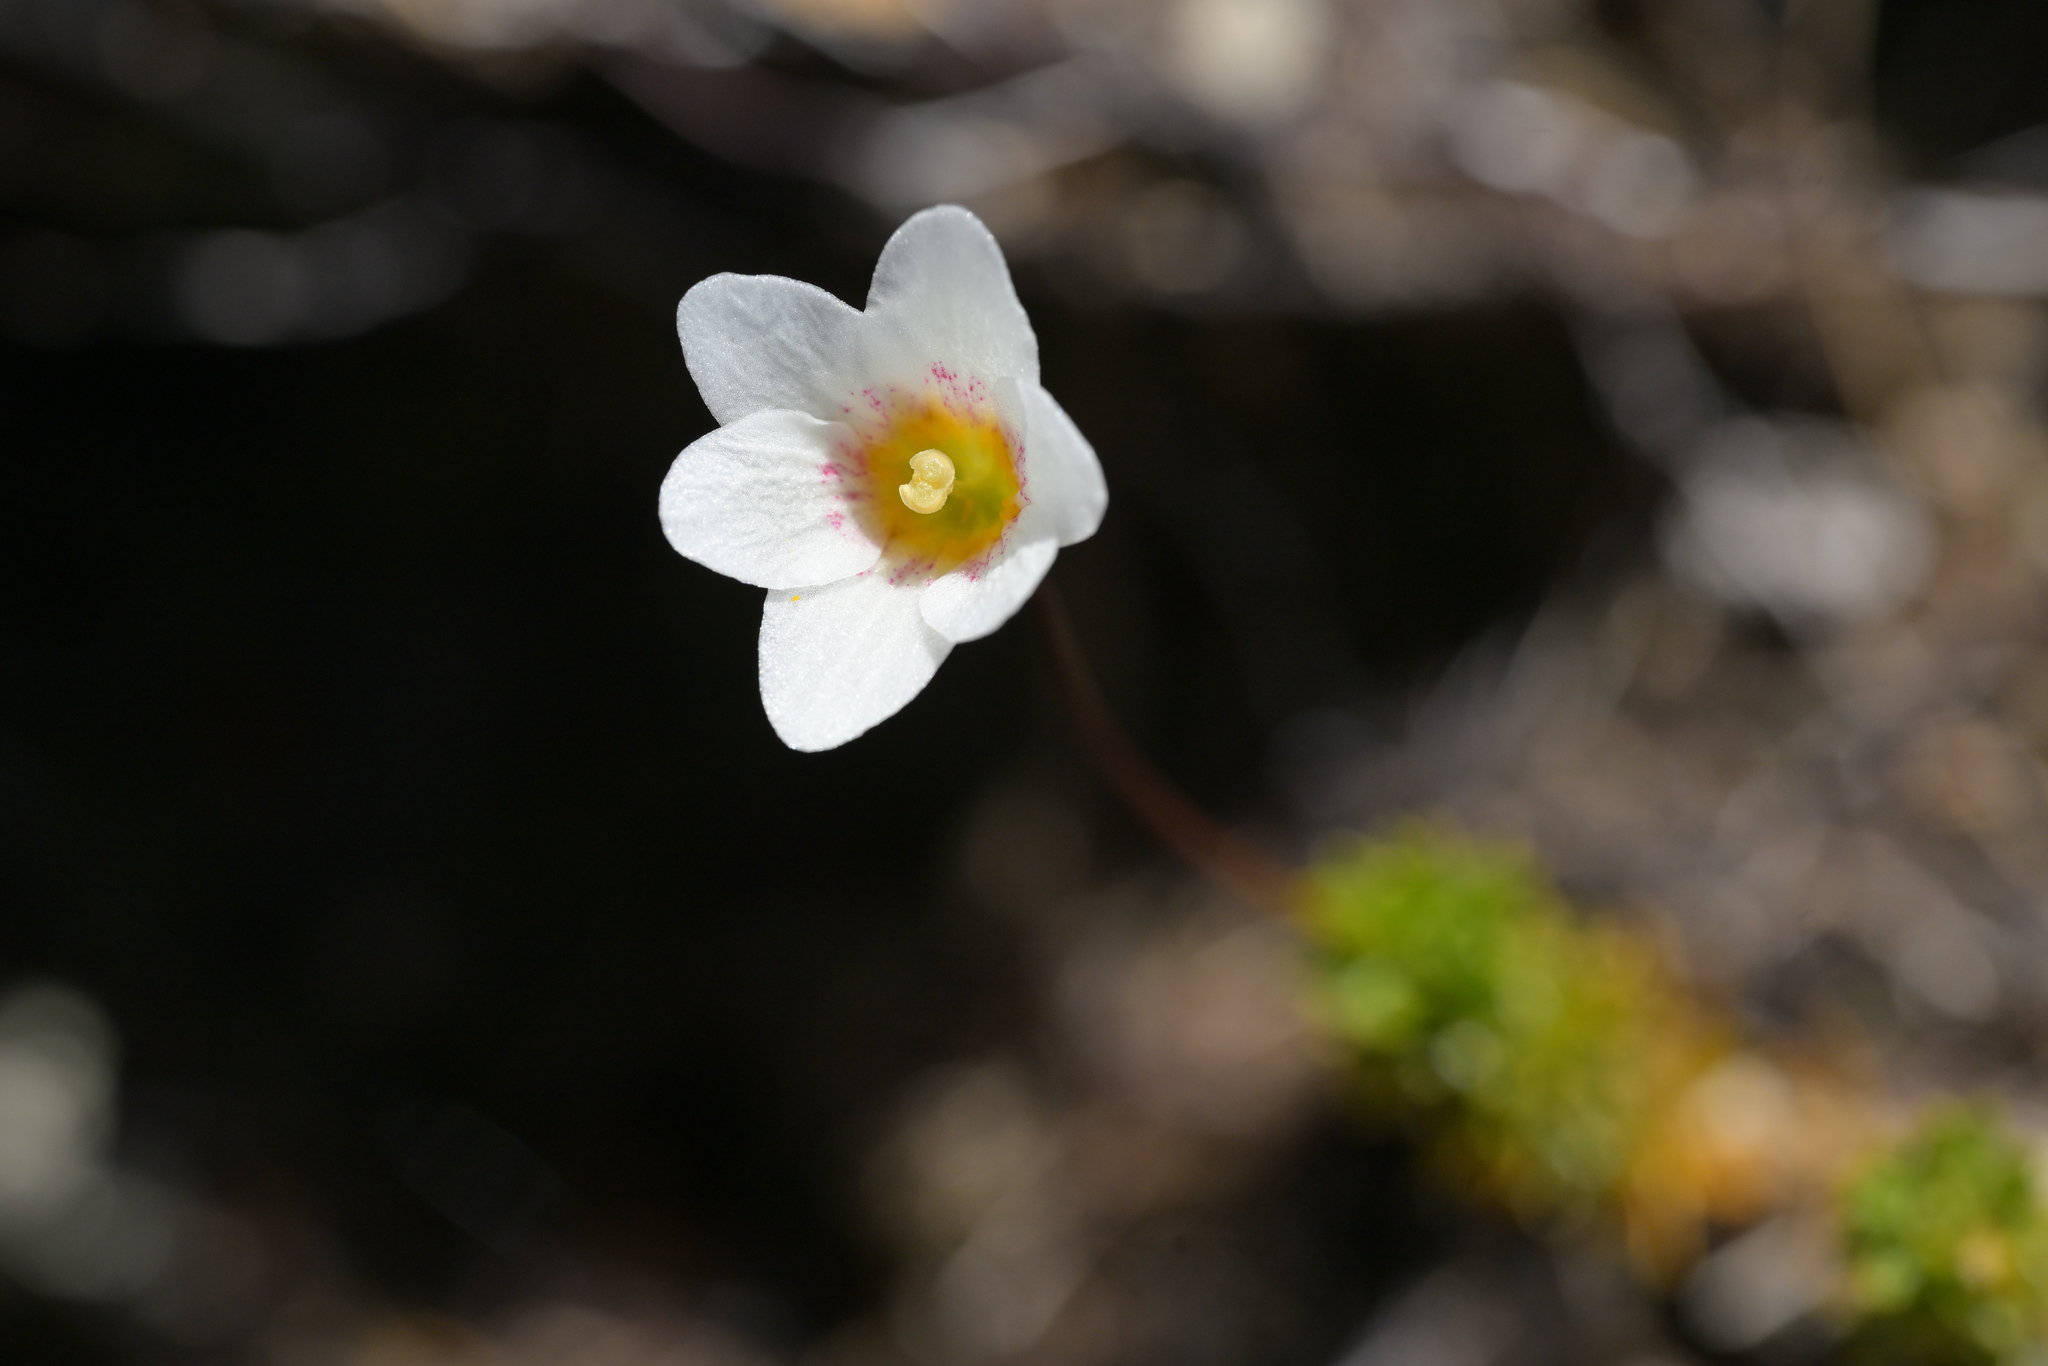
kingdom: Plantae
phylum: Tracheophyta
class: Magnoliopsida
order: Asterales
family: Stylidiaceae
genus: Forstera
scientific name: Forstera mackayi
